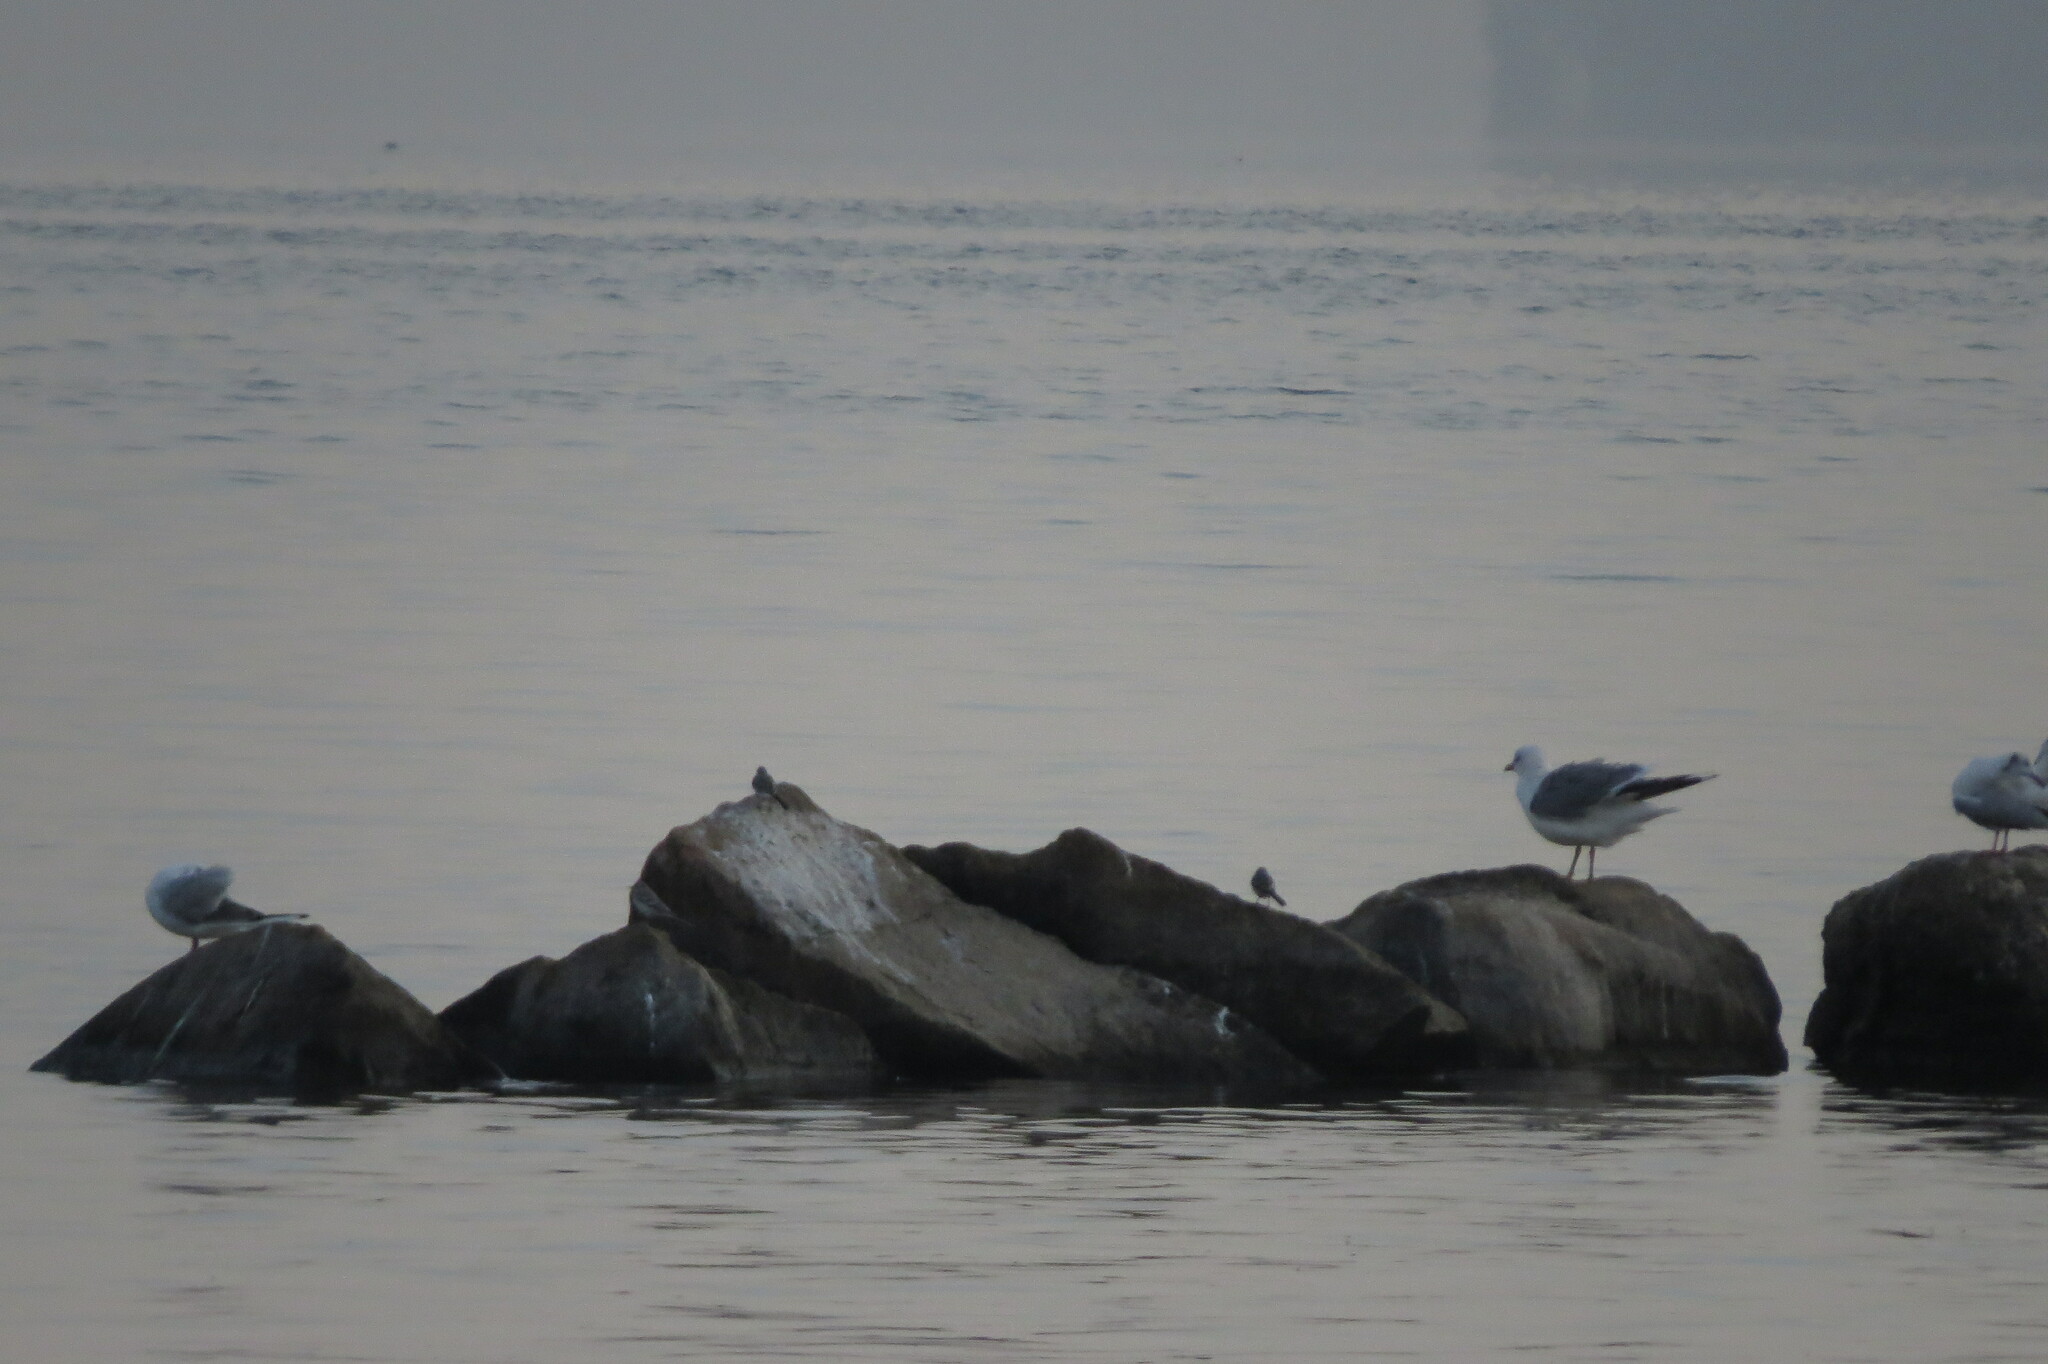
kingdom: Animalia
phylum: Chordata
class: Aves
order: Charadriiformes
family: Laridae
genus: Larus
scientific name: Larus canus
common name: Mew gull
